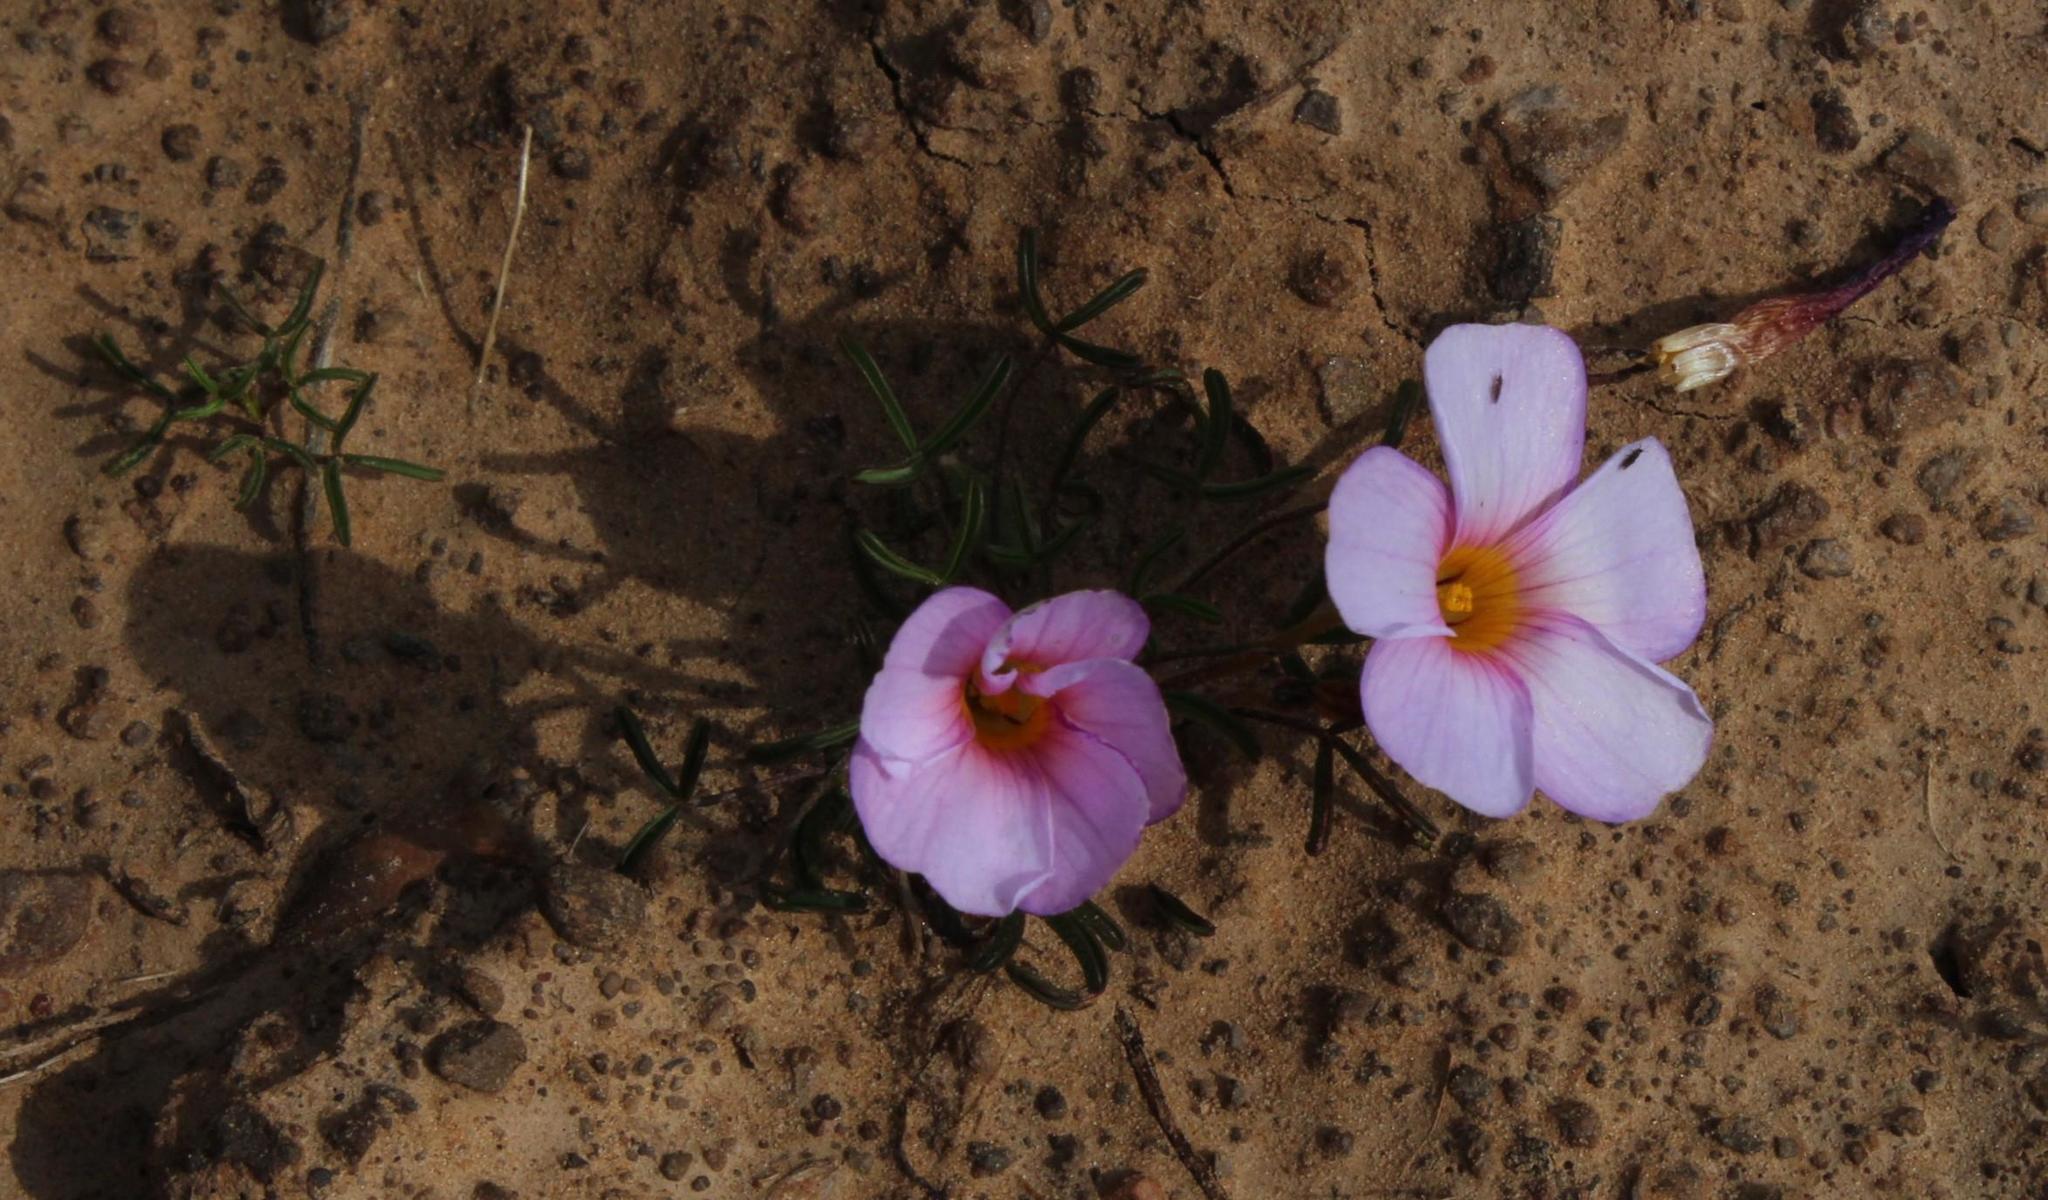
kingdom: Plantae
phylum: Tracheophyta
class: Magnoliopsida
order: Oxalidales
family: Oxalidaceae
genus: Oxalis
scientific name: Oxalis burkei
